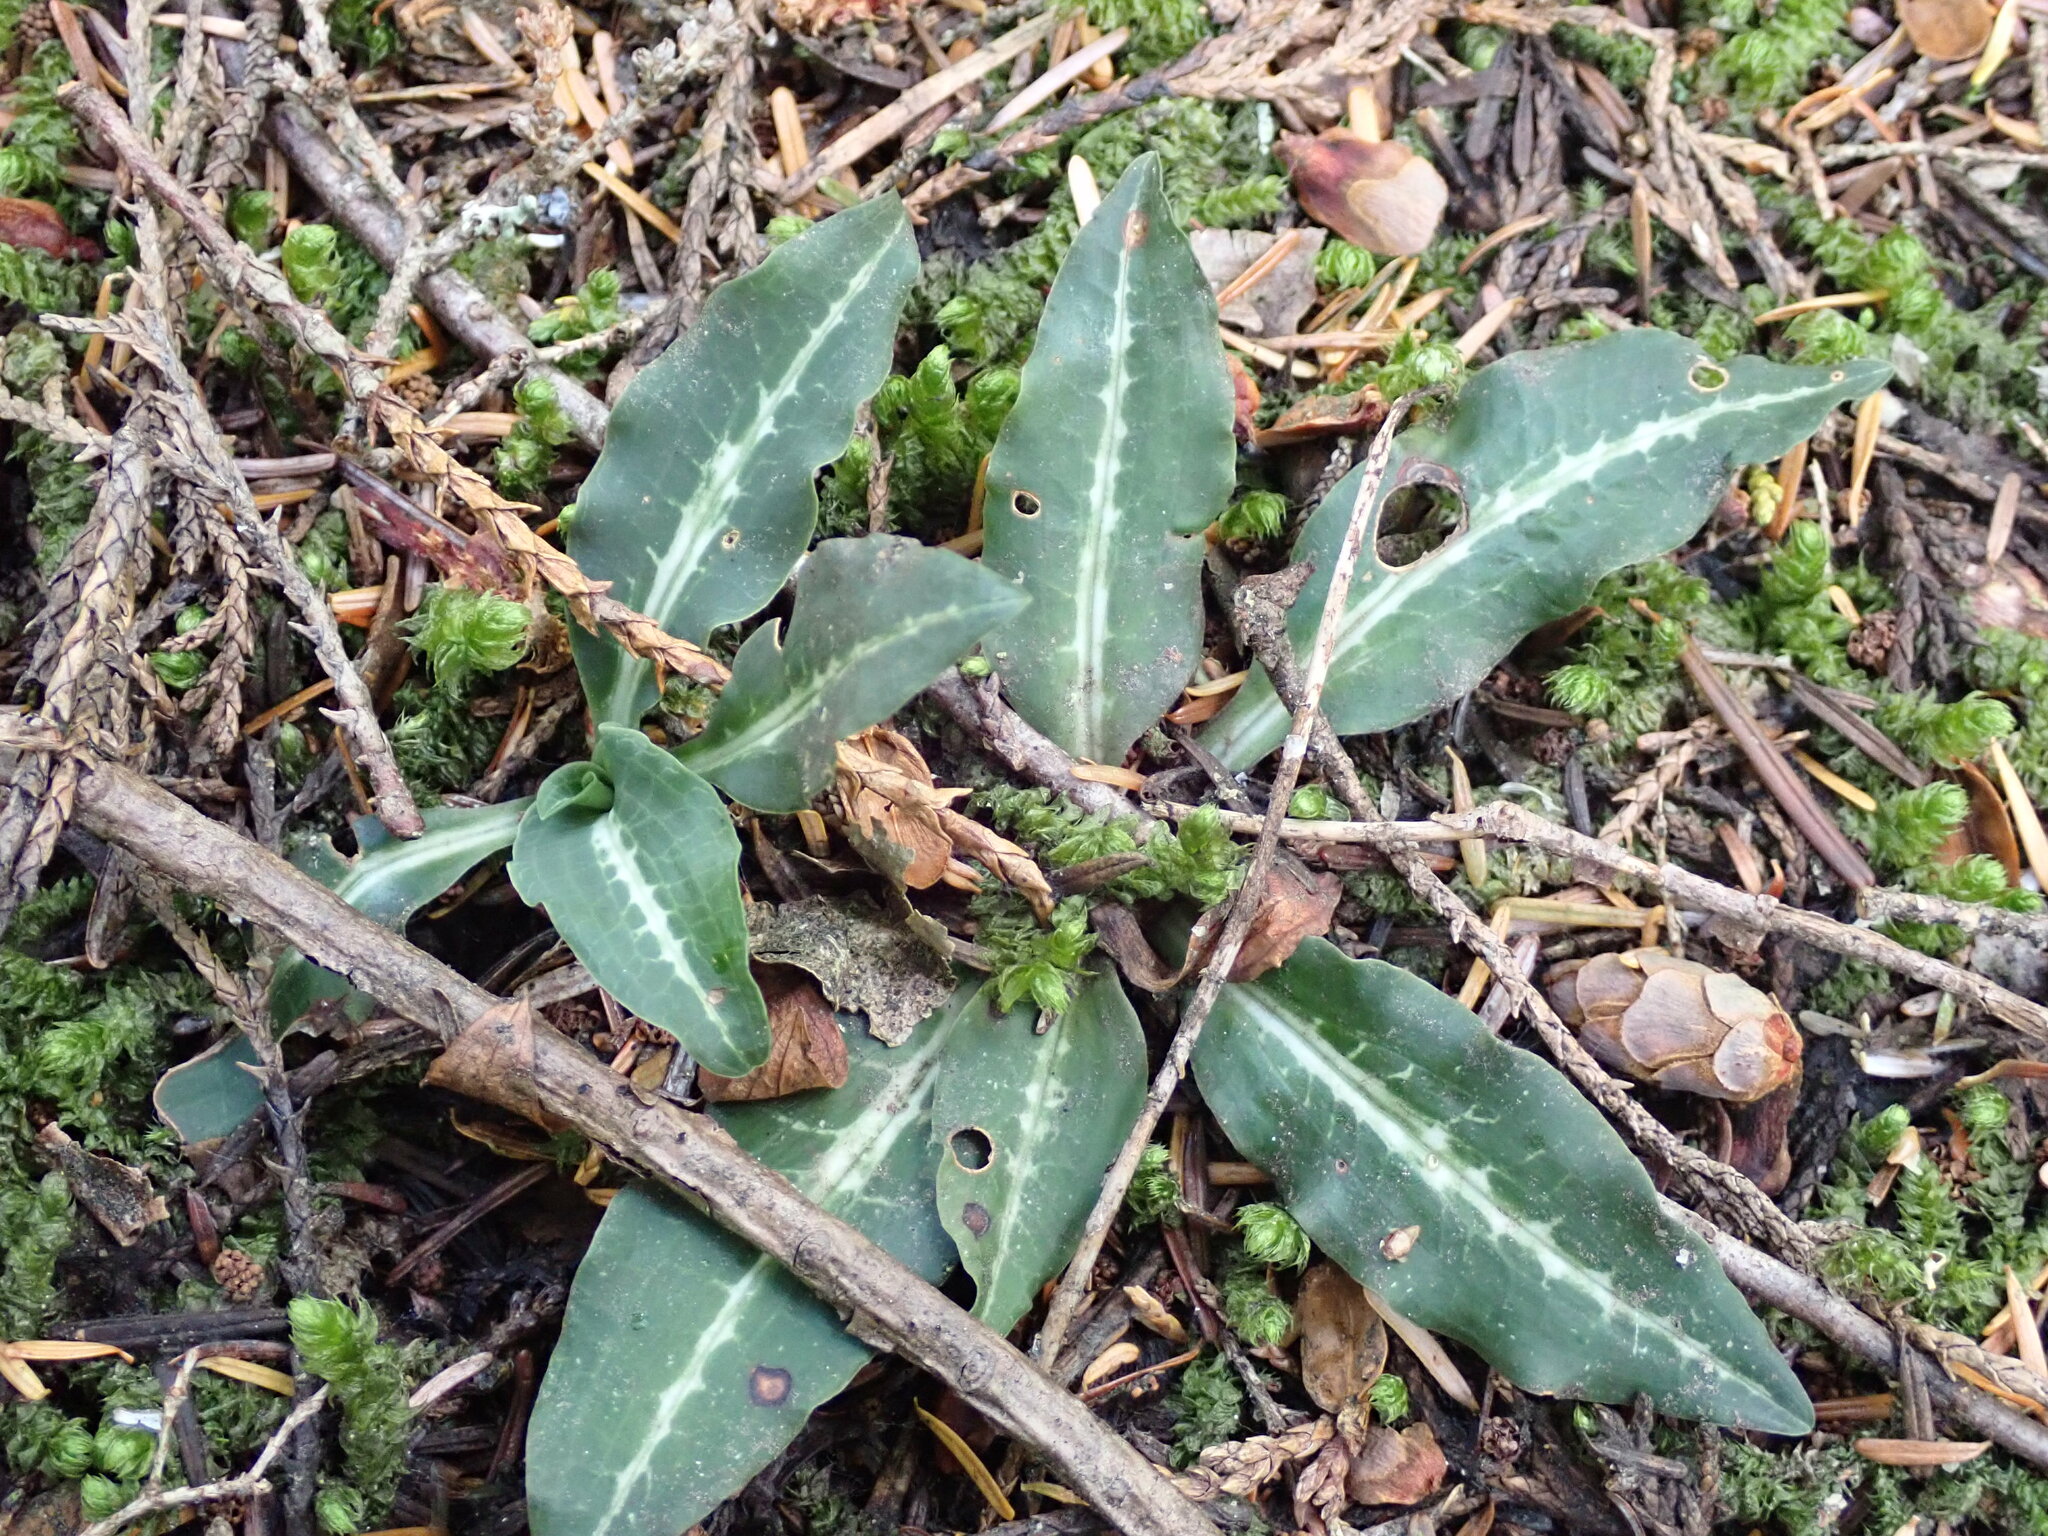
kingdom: Plantae
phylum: Tracheophyta
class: Liliopsida
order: Asparagales
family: Orchidaceae
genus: Goodyera
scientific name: Goodyera oblongifolia
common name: Giant rattlesnake-plantain
